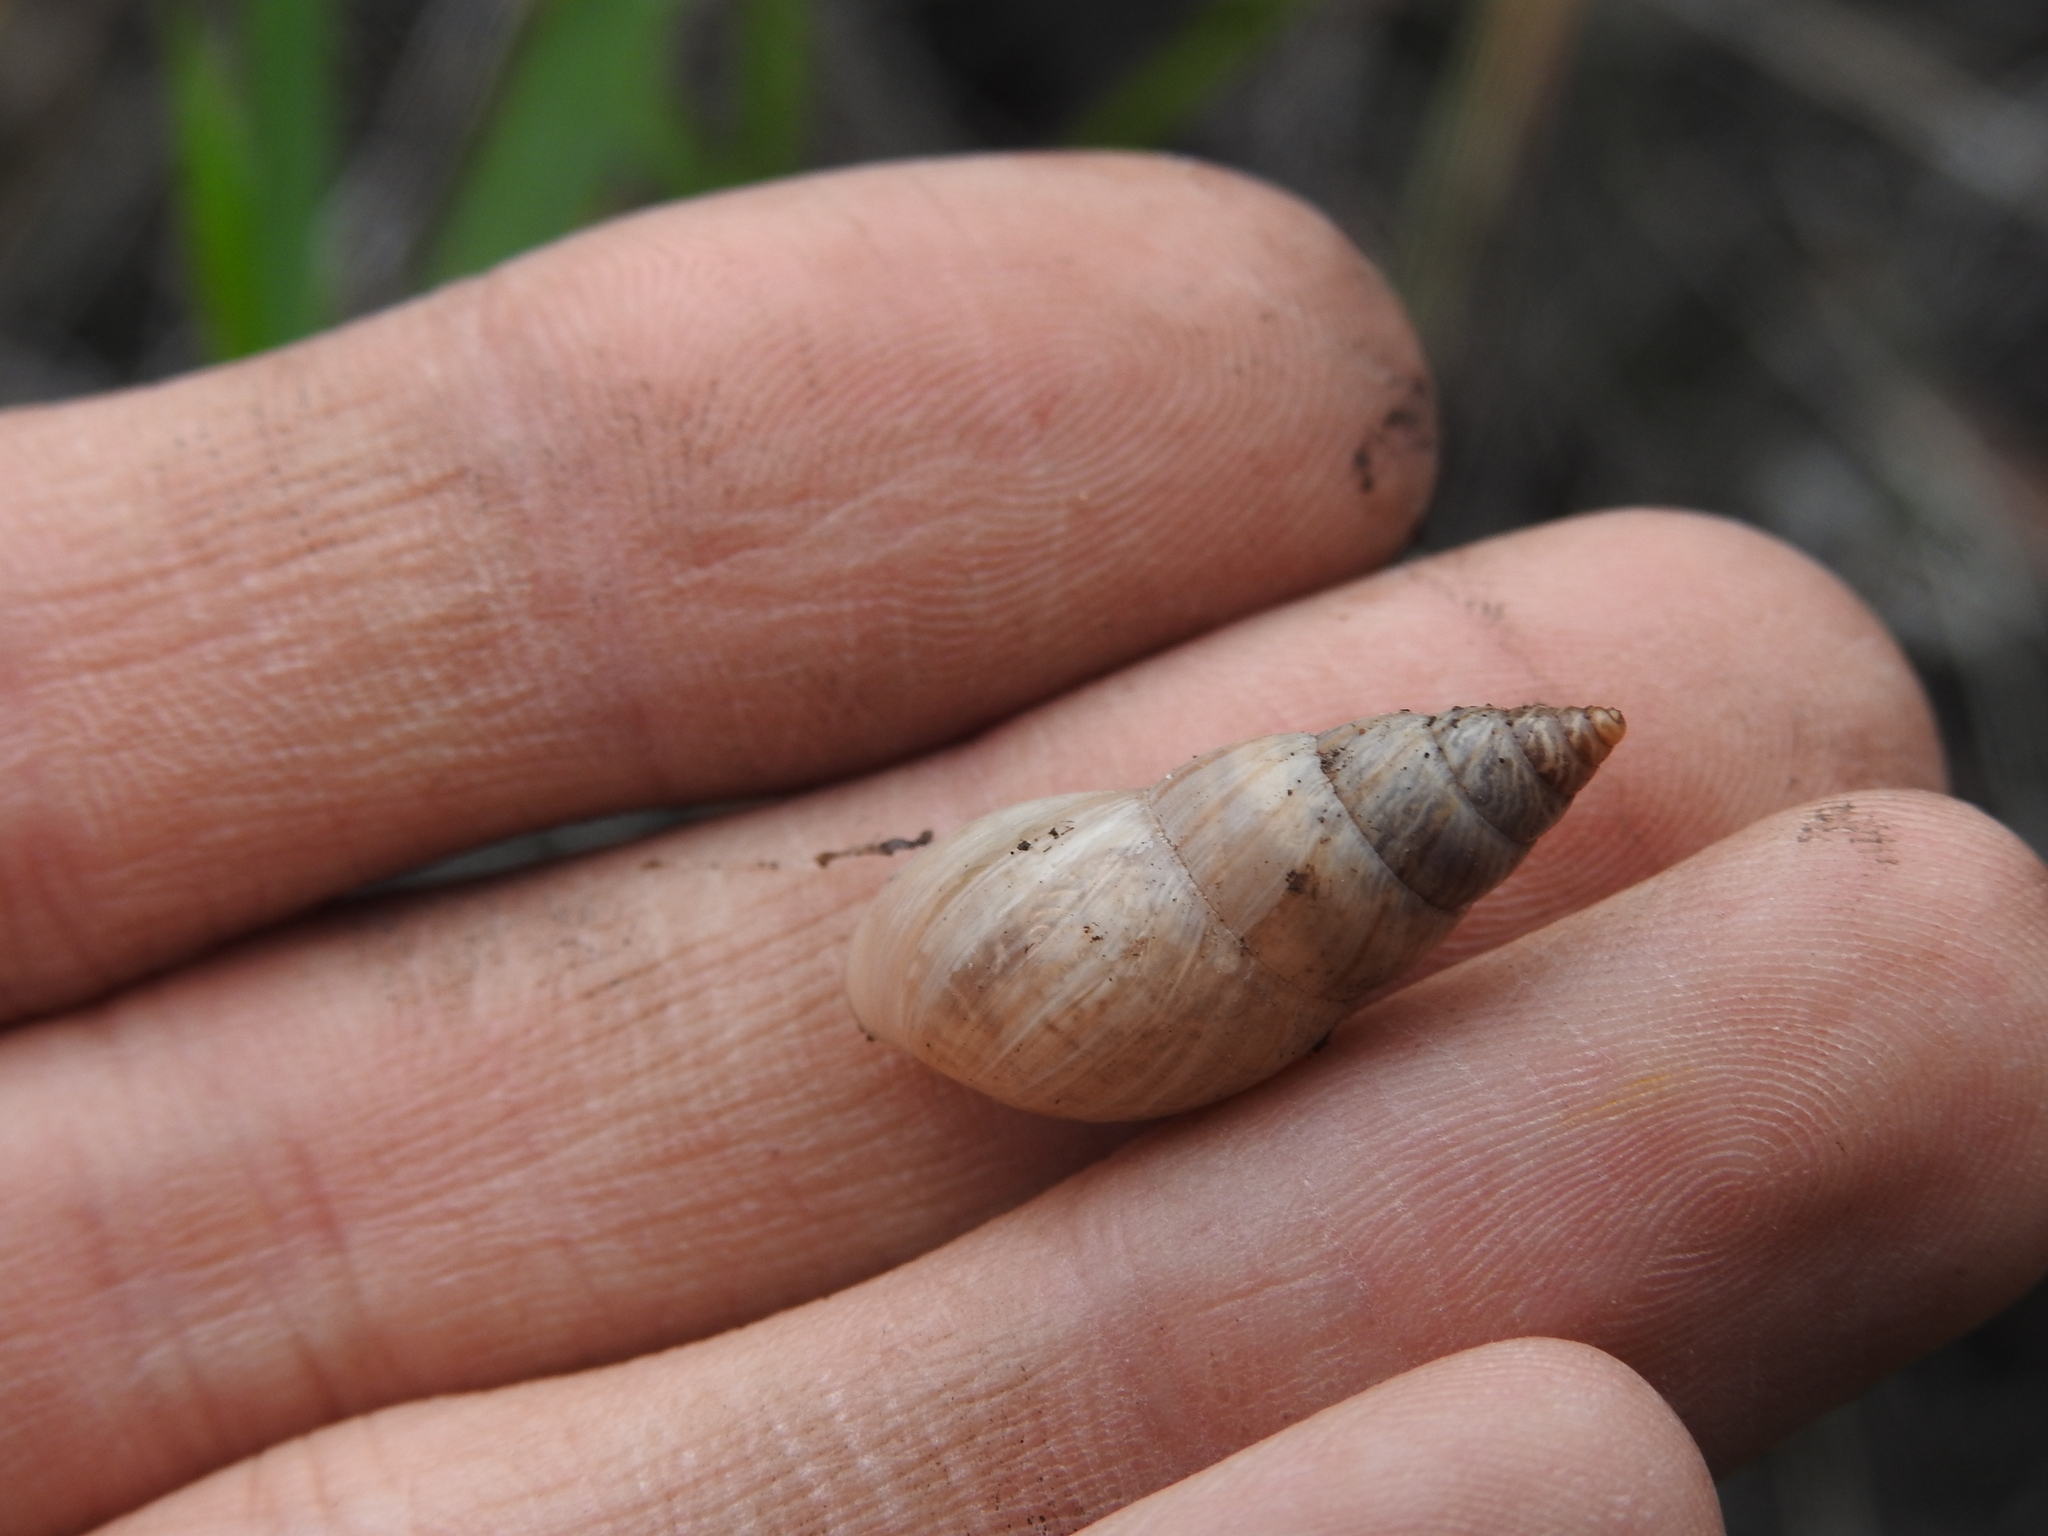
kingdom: Animalia
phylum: Mollusca
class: Gastropoda
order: Stylommatophora
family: Bulimulidae
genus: Bulimulus
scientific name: Bulimulus bonariensis
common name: Snail
